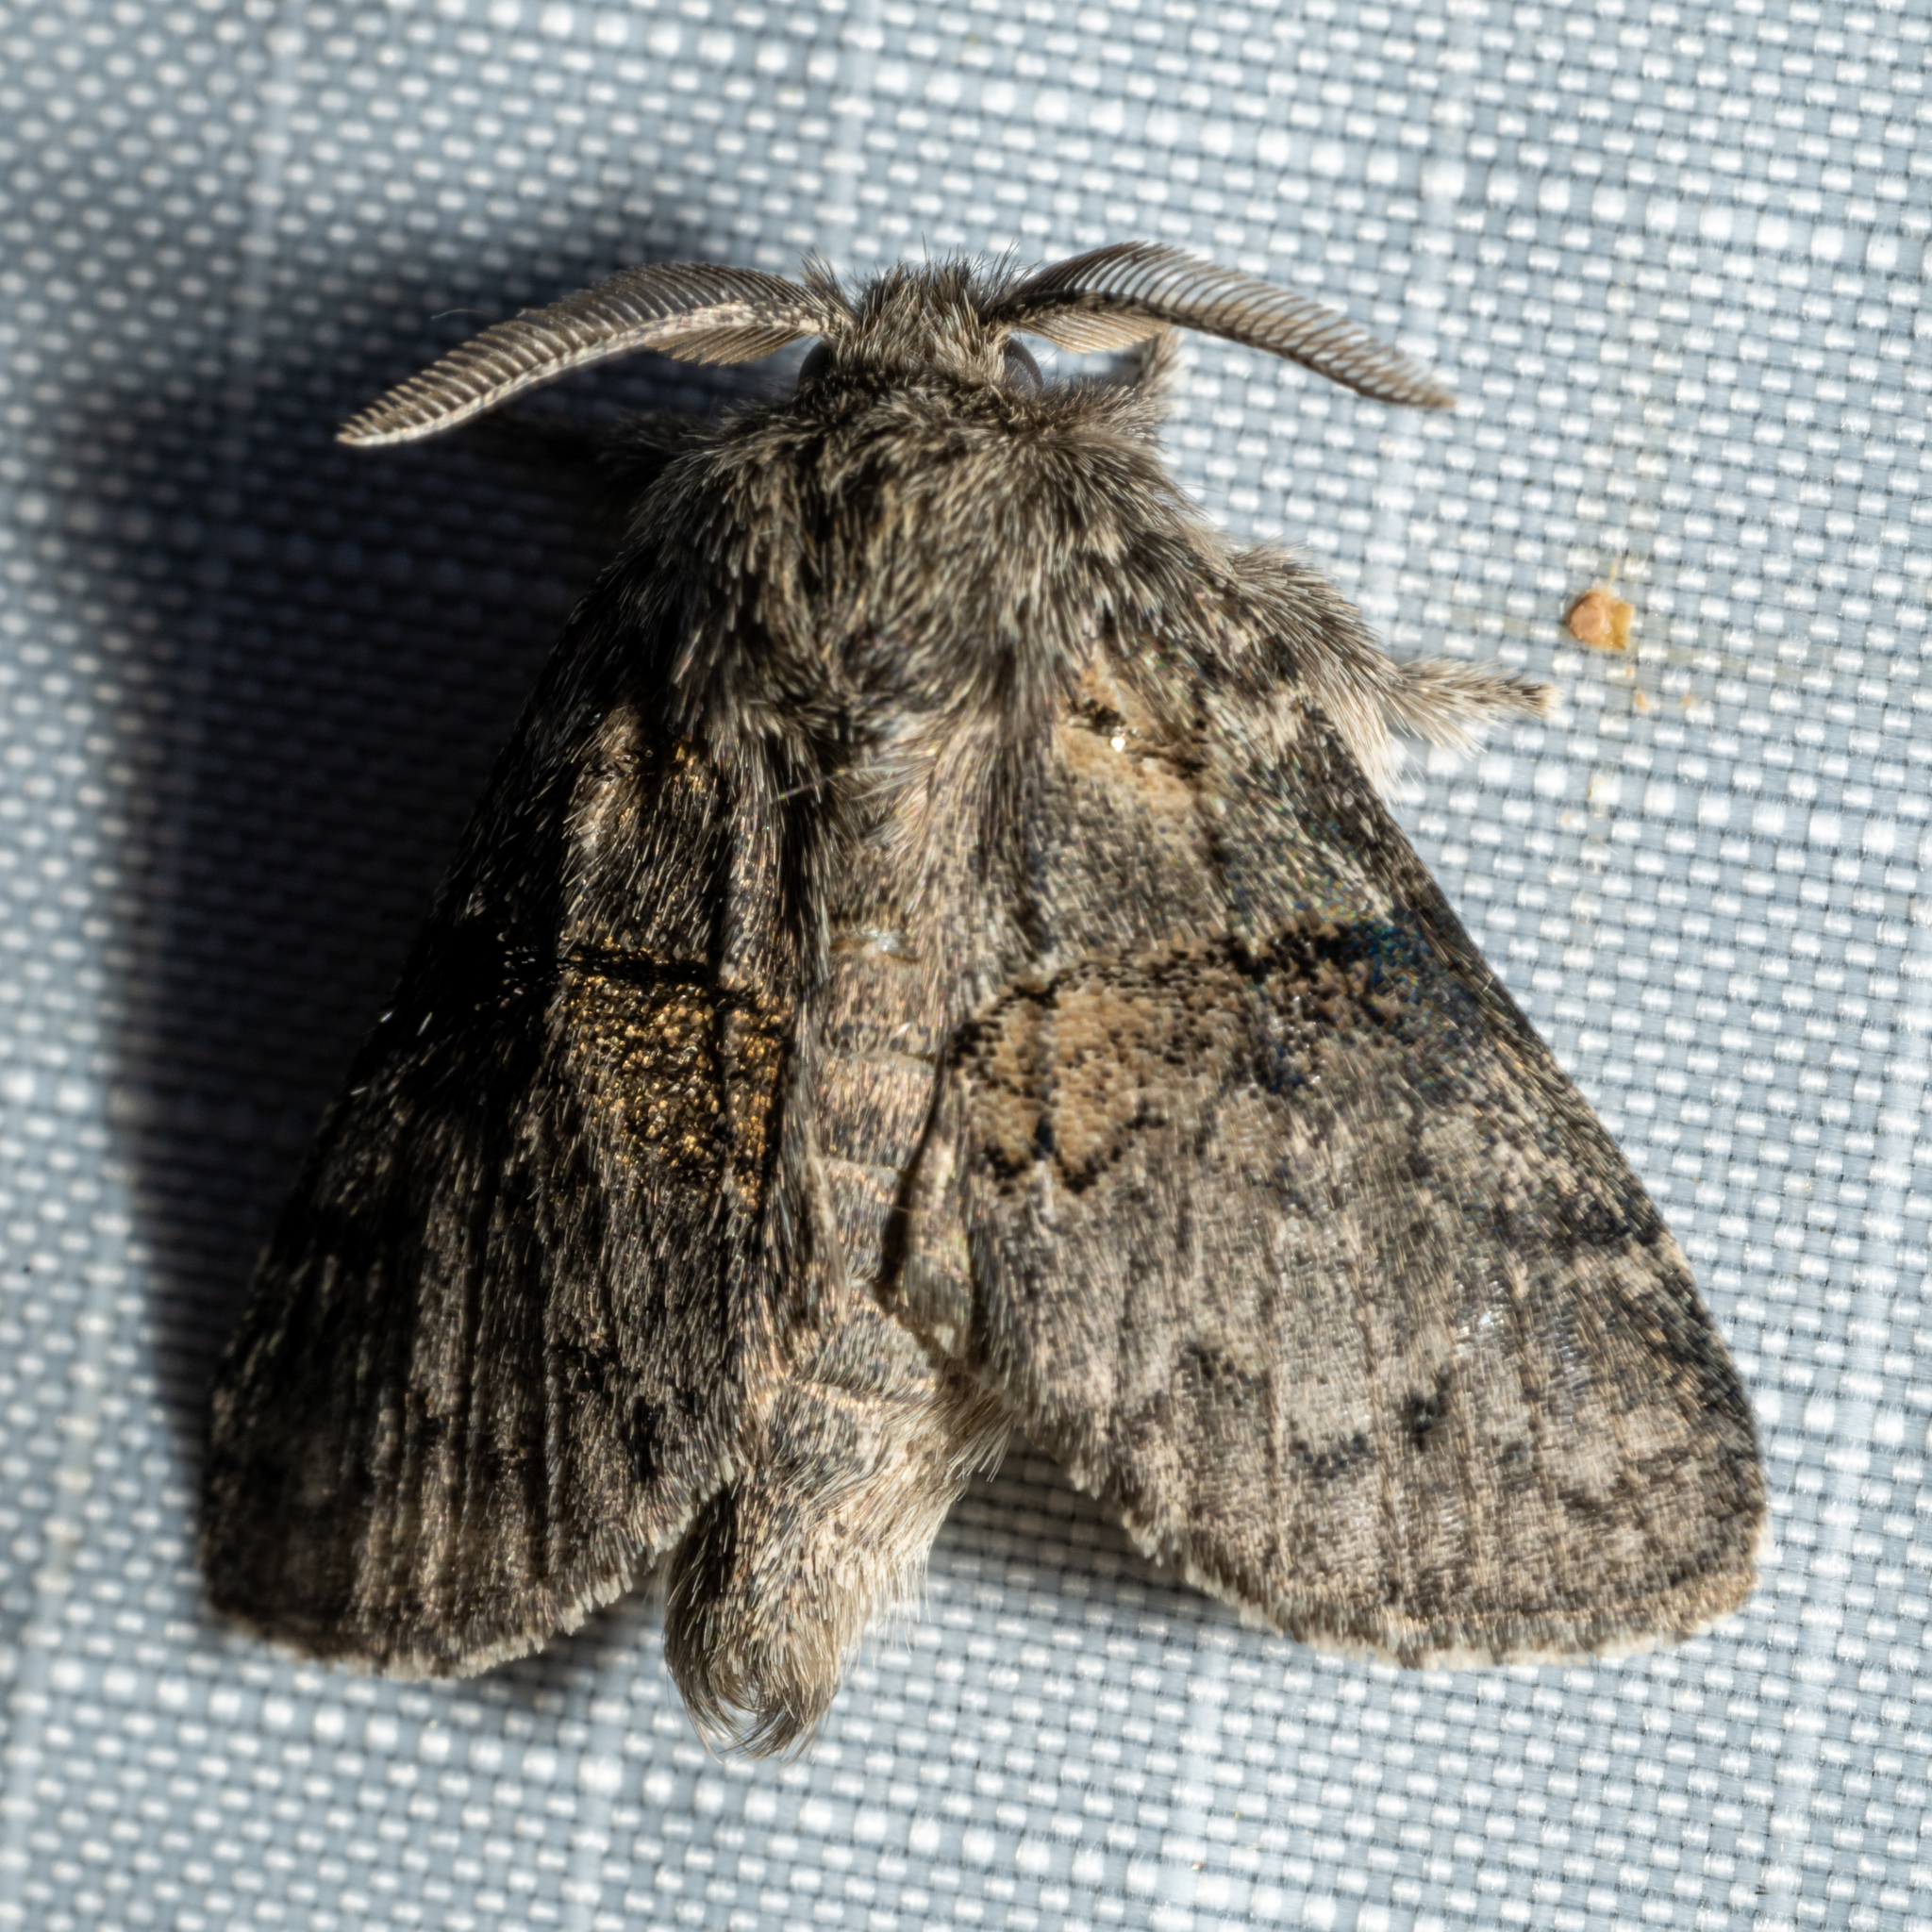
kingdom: Animalia
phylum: Arthropoda
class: Insecta
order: Lepidoptera
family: Notodontidae
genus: Gluphisia
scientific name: Gluphisia septentrionis
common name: Common gluphisia
